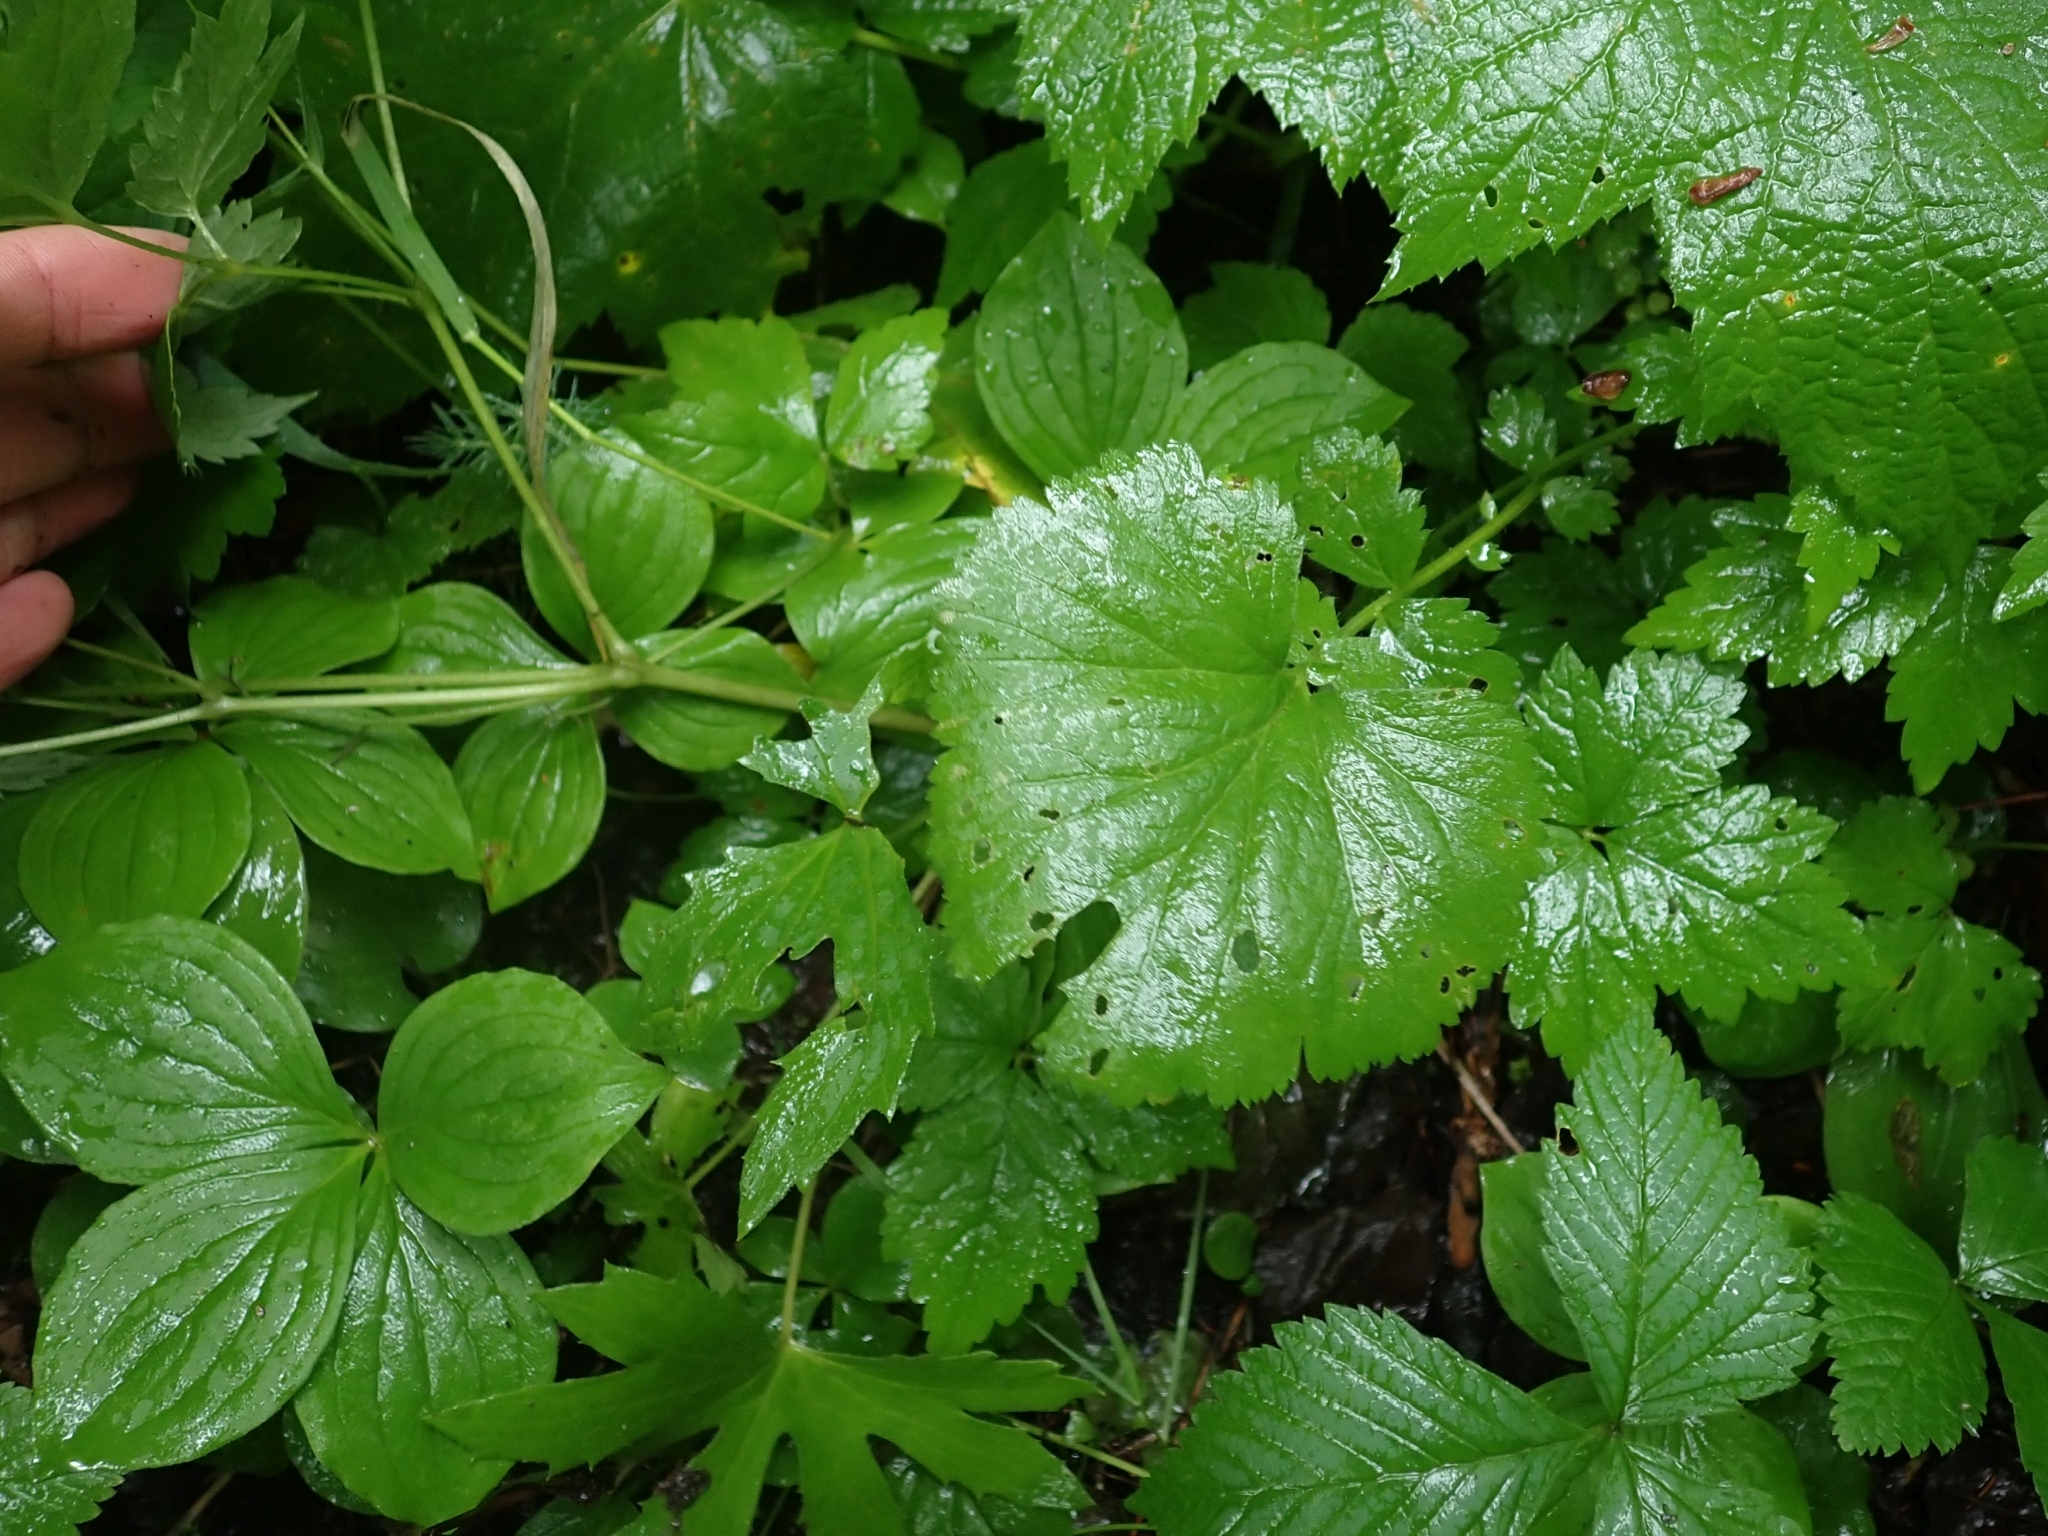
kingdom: Plantae
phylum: Tracheophyta
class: Magnoliopsida
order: Rosales
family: Rosaceae
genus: Geum
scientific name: Geum macrophyllum
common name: Large-leaved avens
